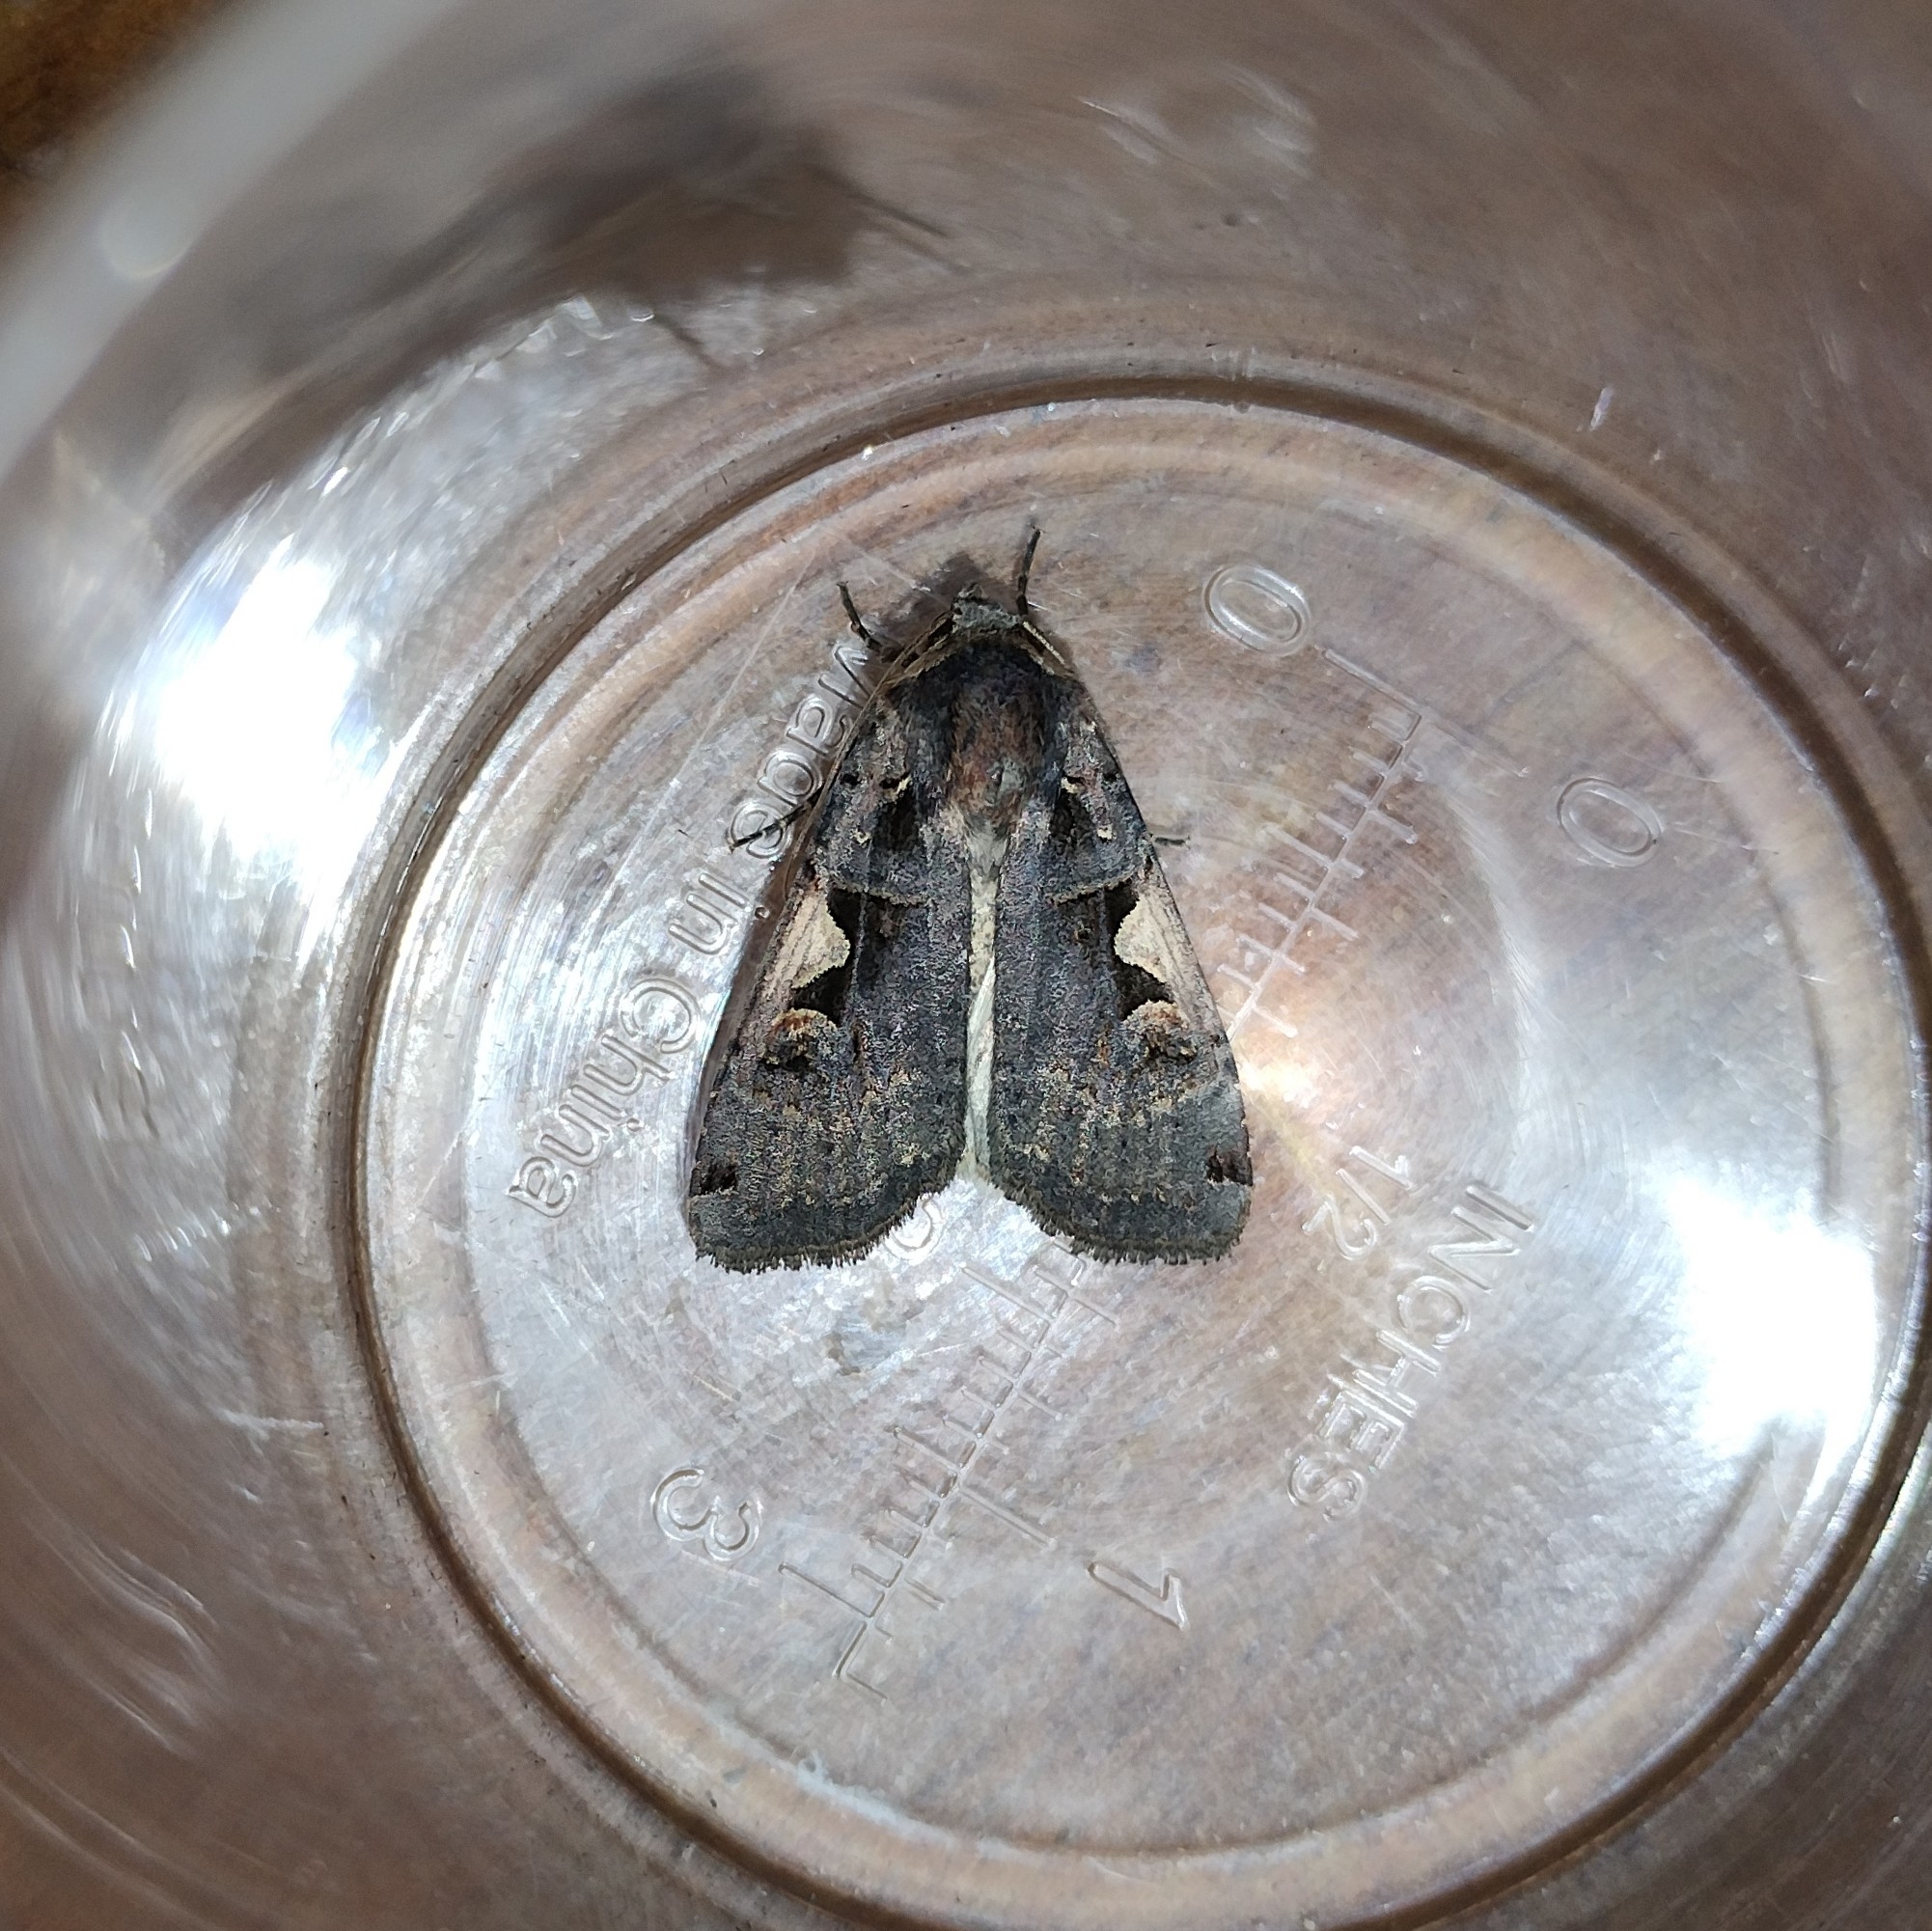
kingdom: Animalia
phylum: Arthropoda
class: Insecta
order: Lepidoptera
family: Noctuidae
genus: Xestia
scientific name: Xestia c-nigrum
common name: Setaceous hebrew character
